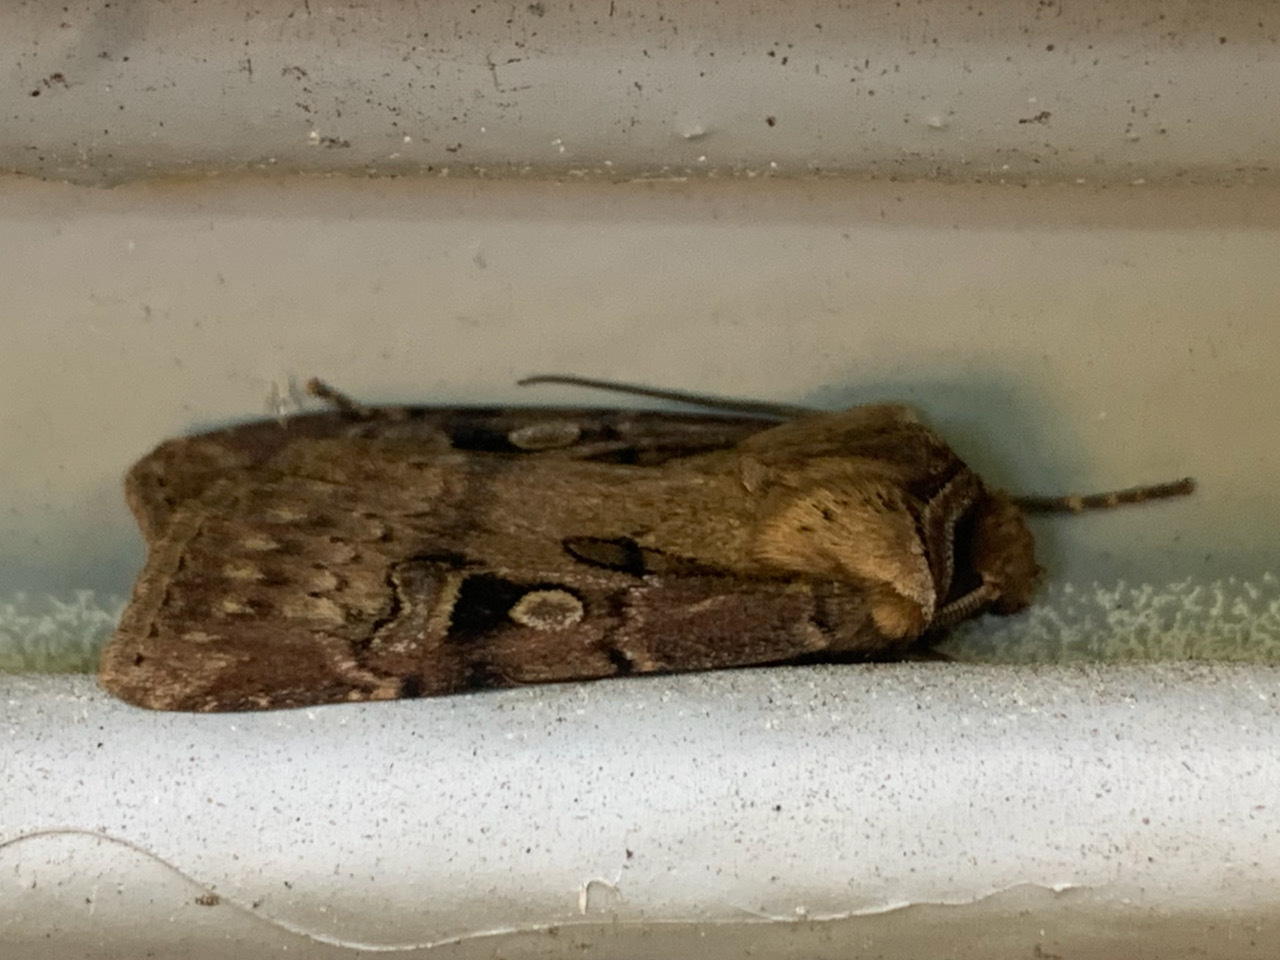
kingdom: Animalia
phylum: Arthropoda
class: Insecta
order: Lepidoptera
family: Noctuidae
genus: Agrotis
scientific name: Agrotis vancouverensis
